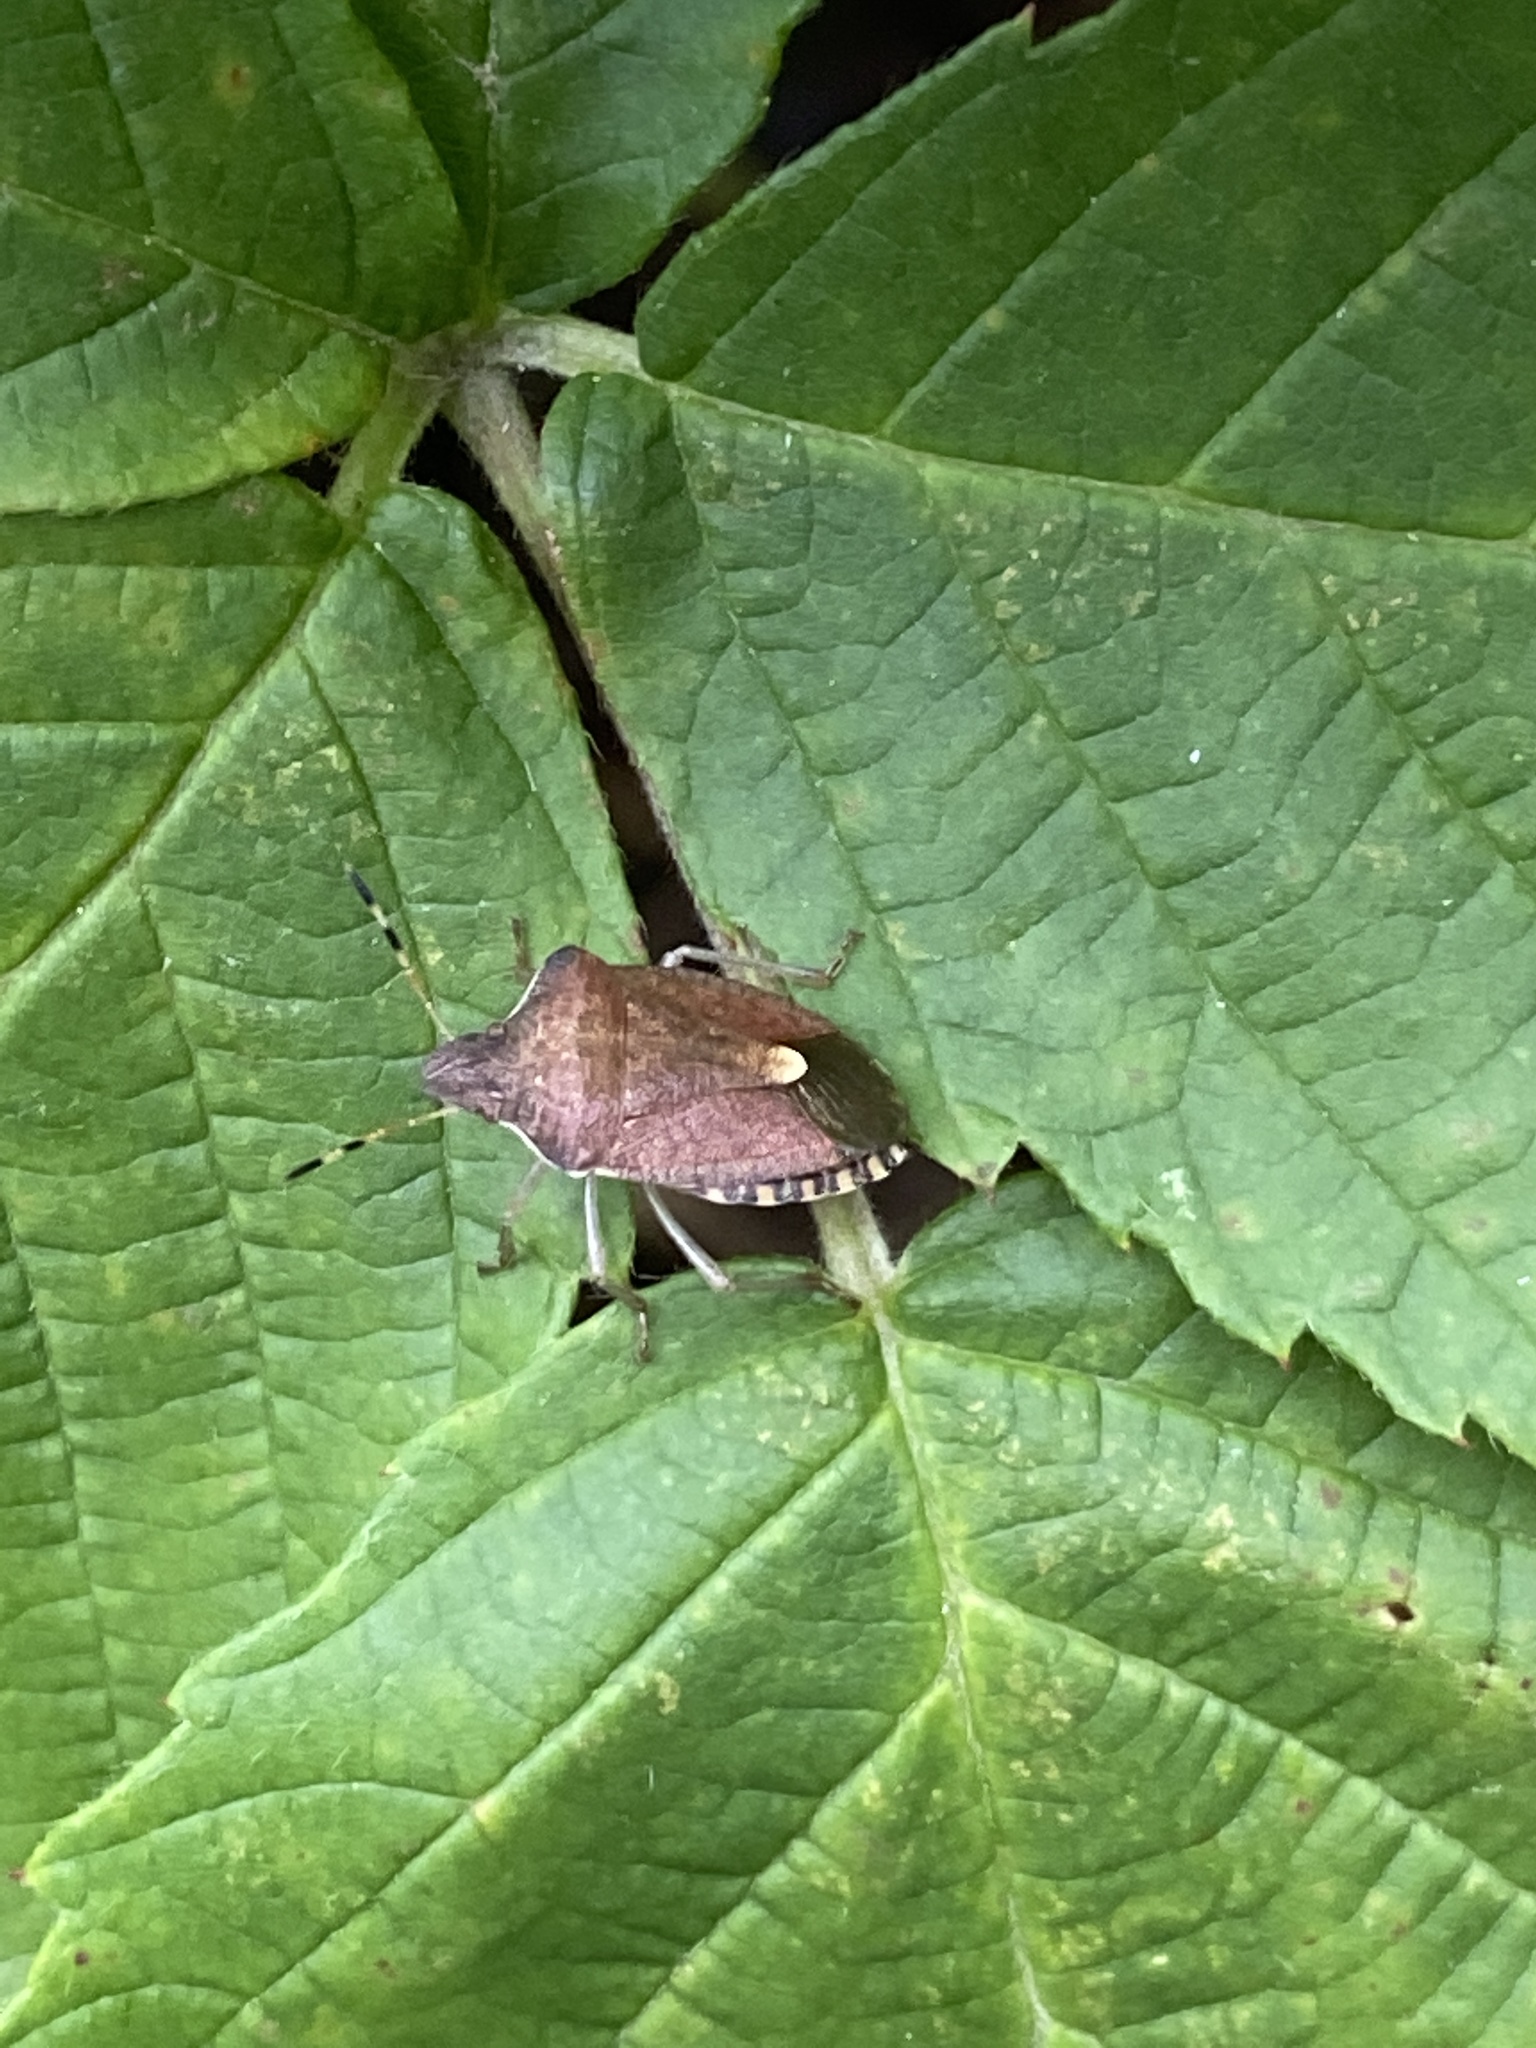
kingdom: Animalia
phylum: Arthropoda
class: Insecta
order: Hemiptera
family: Pentatomidae
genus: Holcostethus
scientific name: Holcostethus strictus
